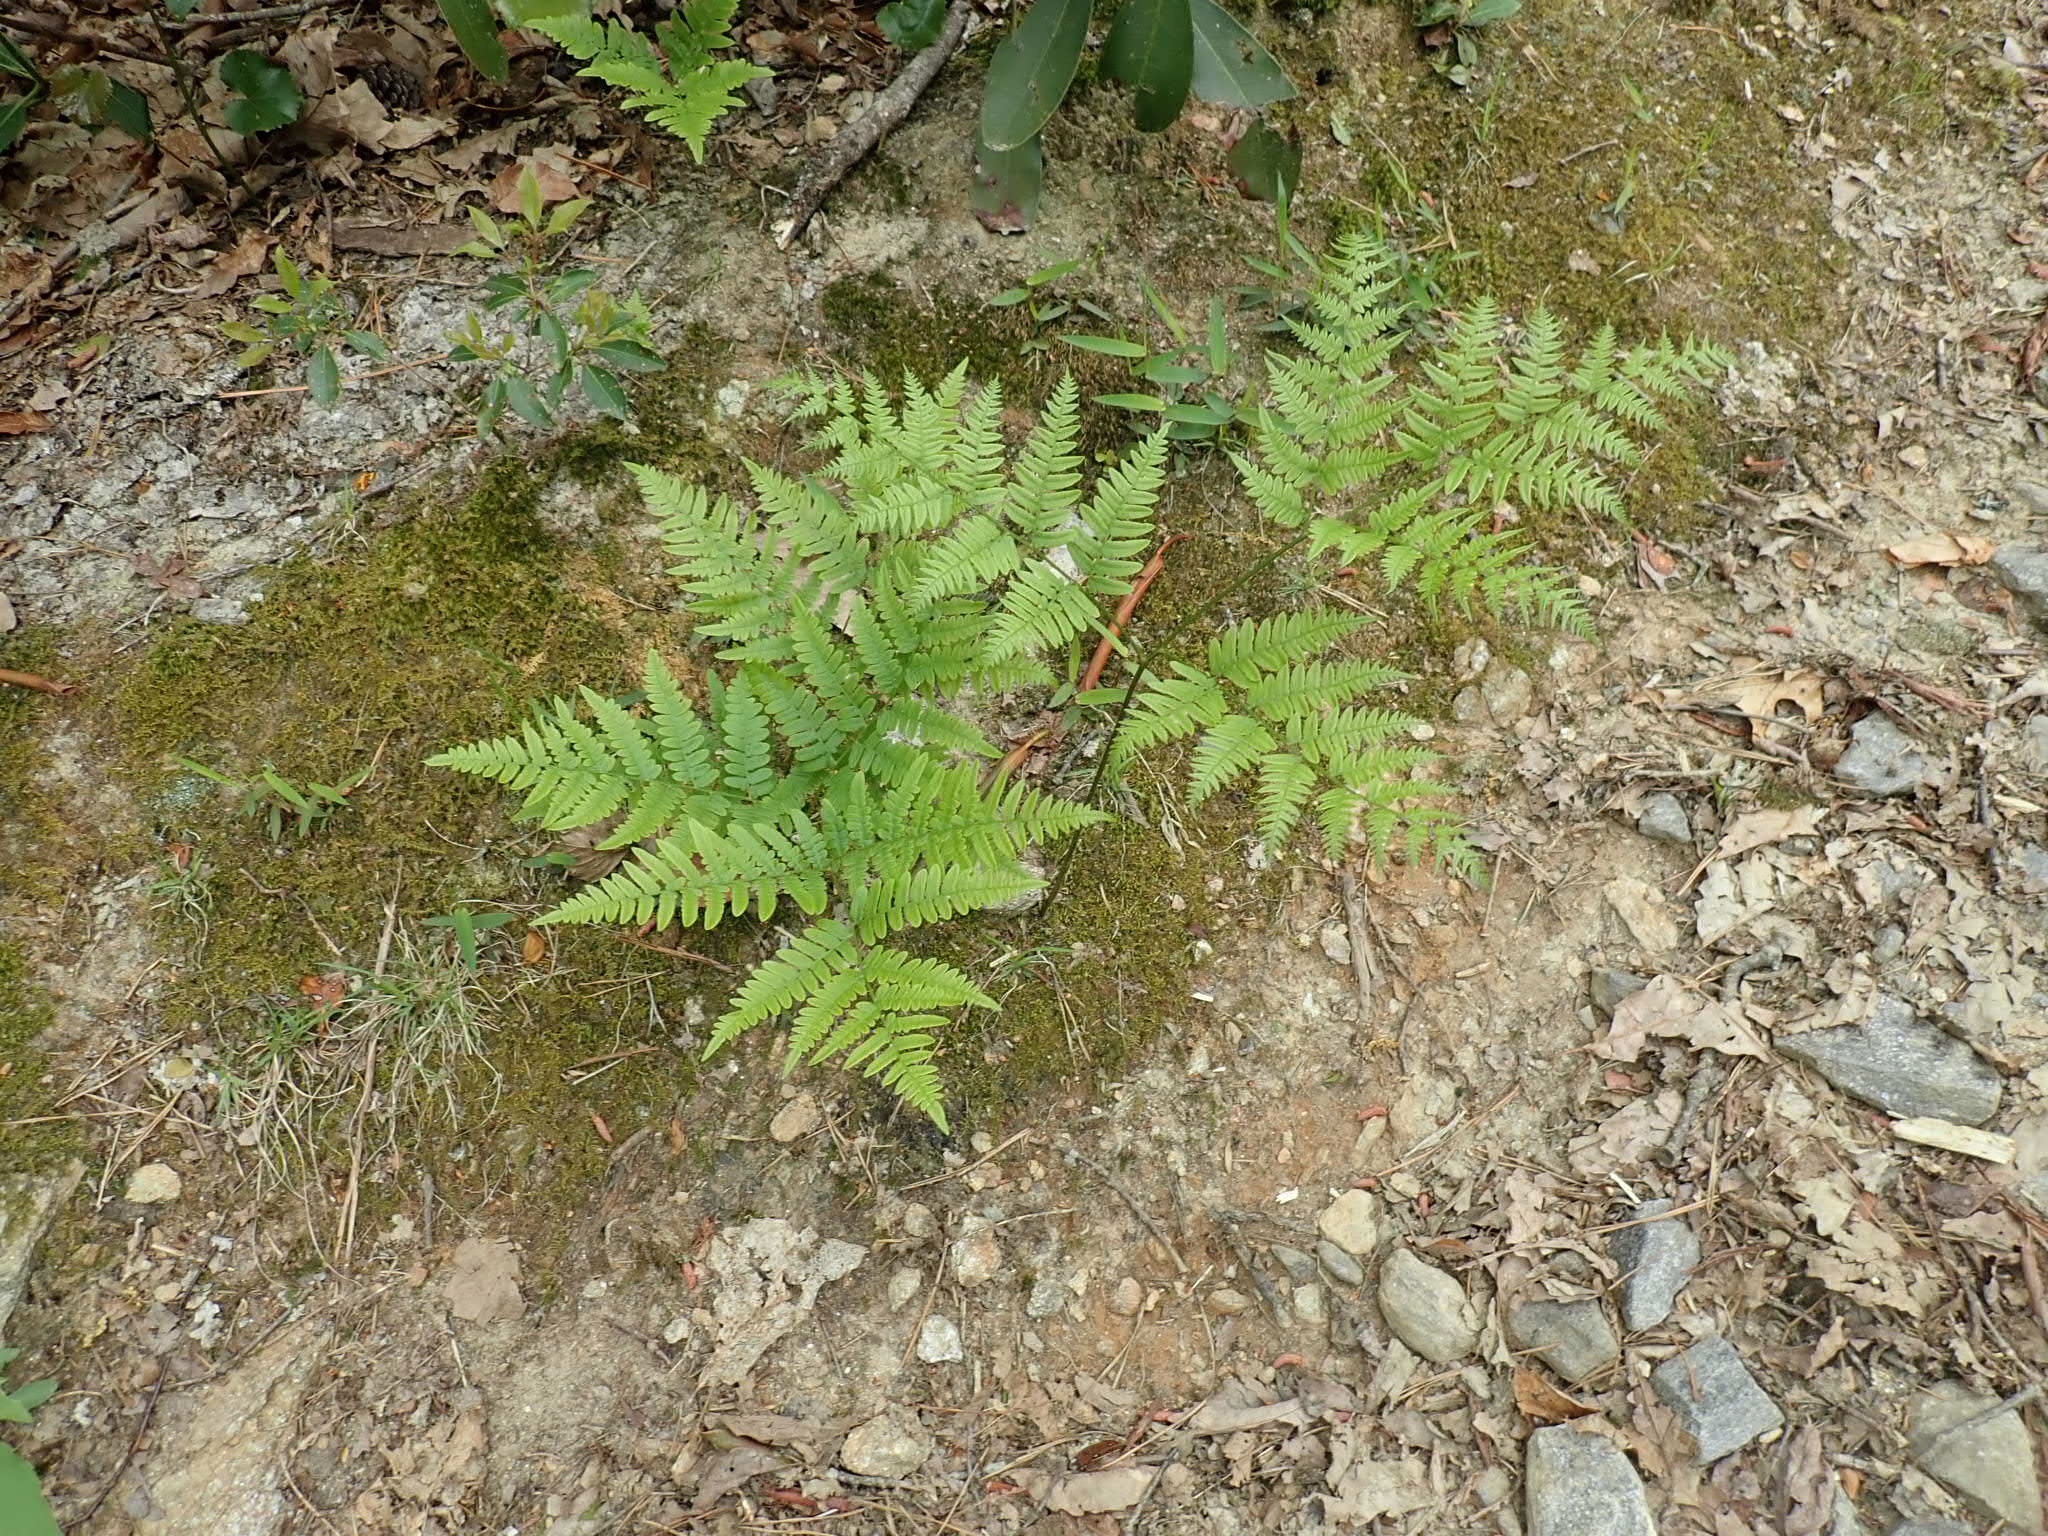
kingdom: Plantae
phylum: Tracheophyta
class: Polypodiopsida
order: Polypodiales
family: Dennstaedtiaceae
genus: Pteridium
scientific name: Pteridium aquilinum
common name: Bracken
